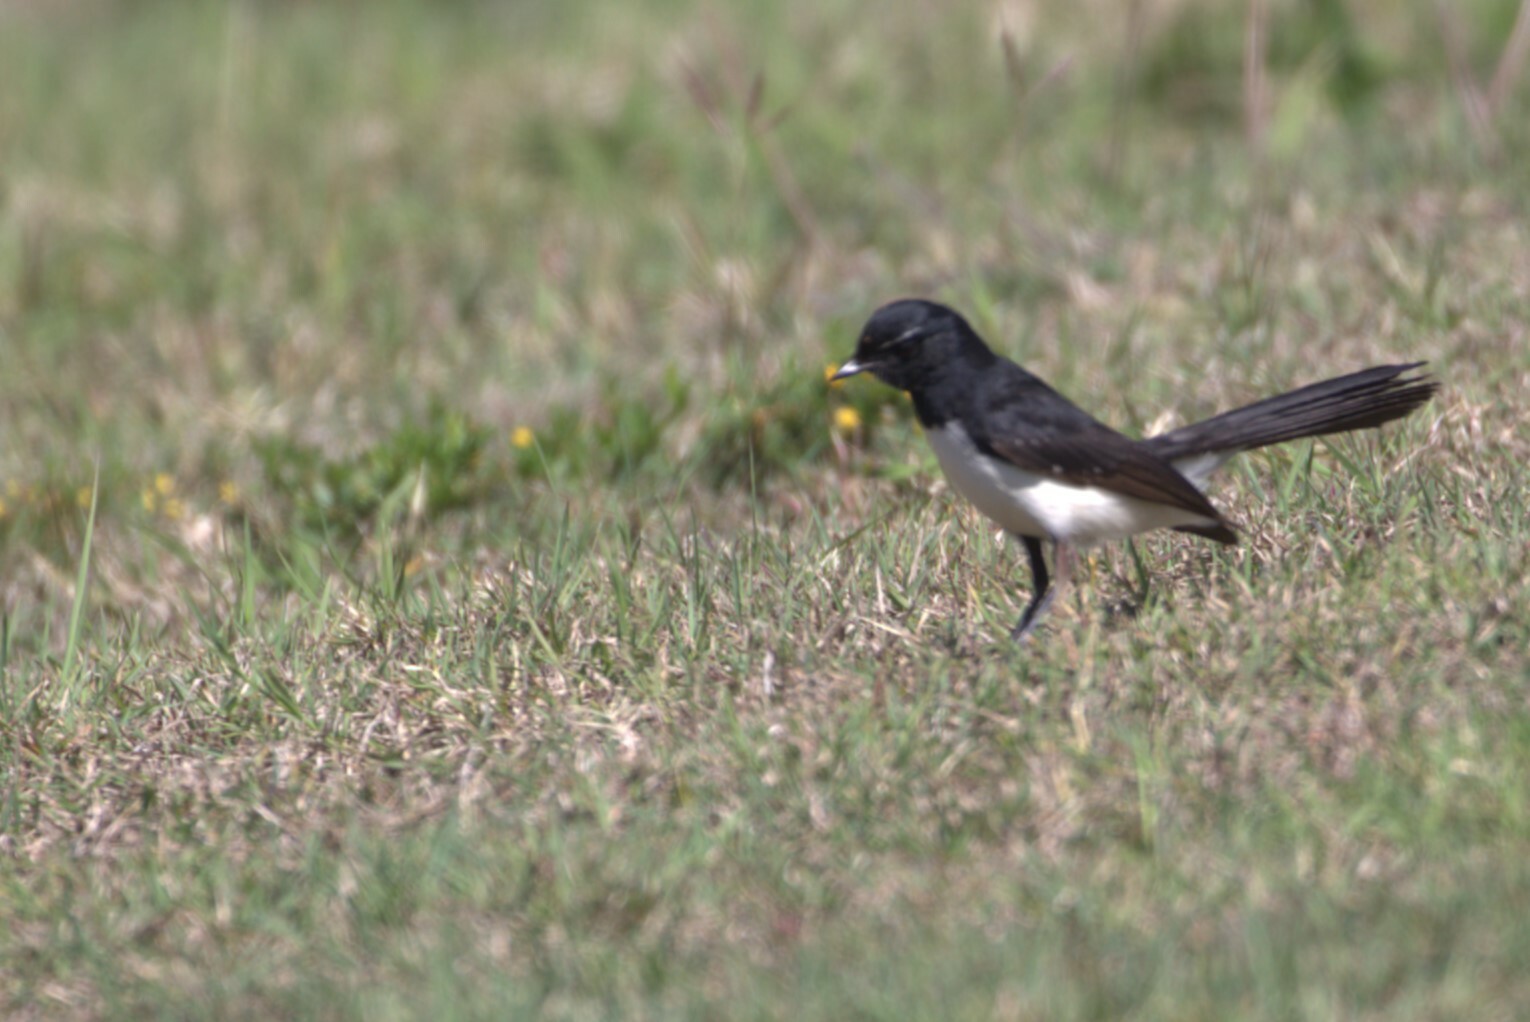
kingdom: Animalia
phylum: Chordata
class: Aves
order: Passeriformes
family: Rhipiduridae
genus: Rhipidura
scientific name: Rhipidura leucophrys
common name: Willie wagtail
